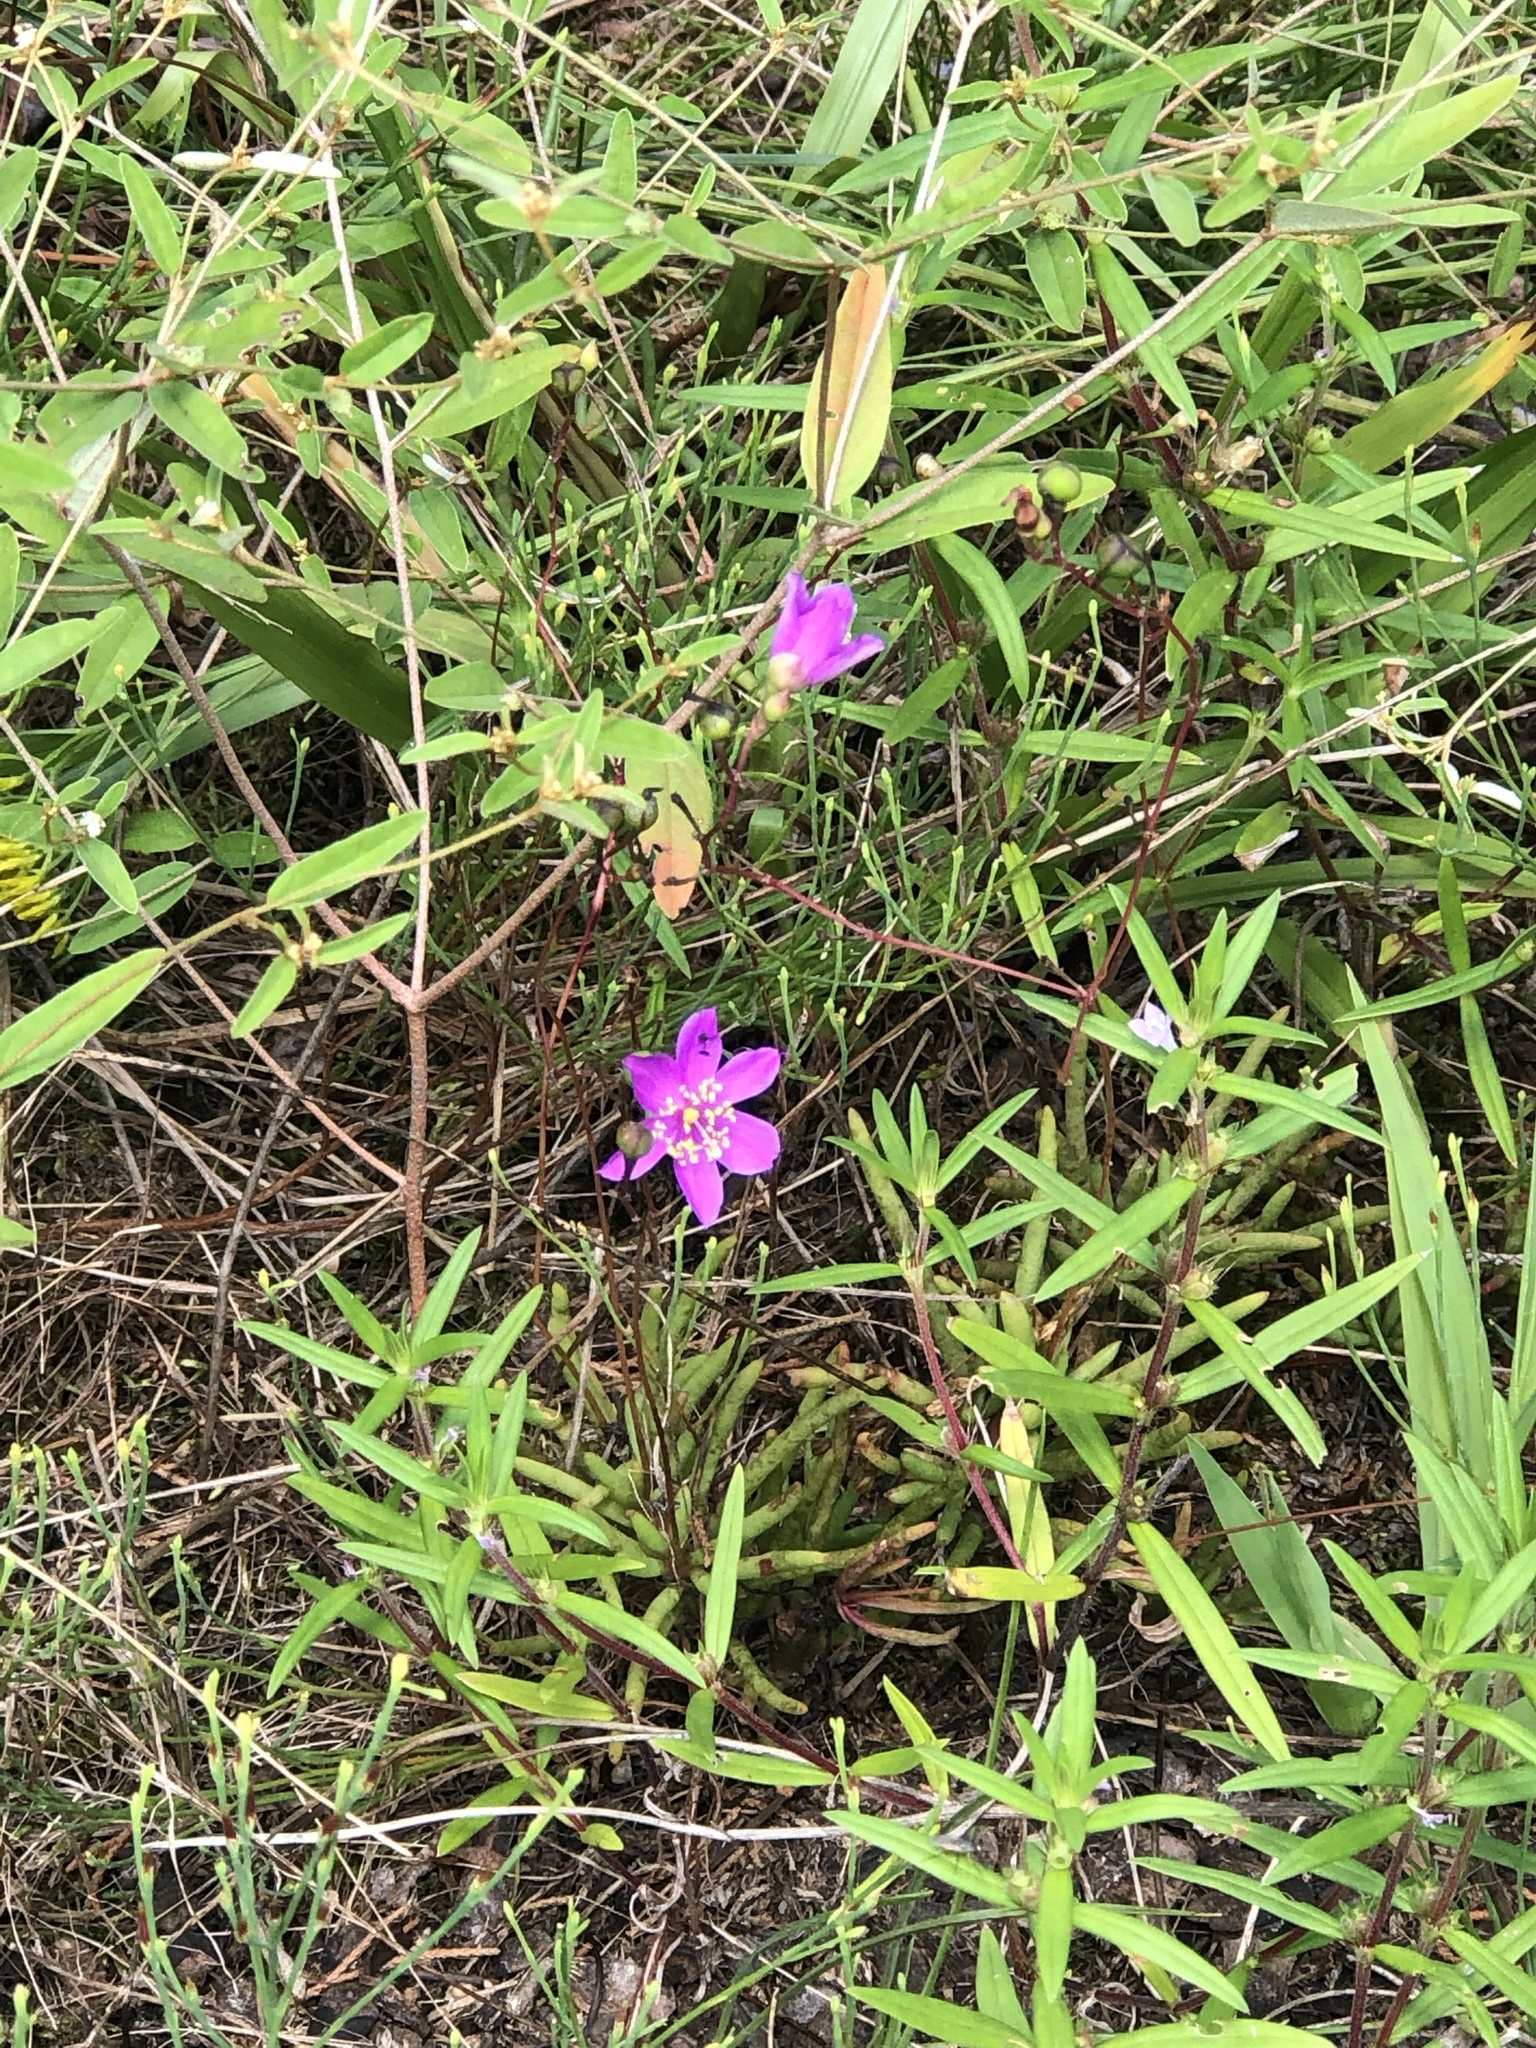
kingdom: Plantae
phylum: Tracheophyta
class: Magnoliopsida
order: Caryophyllales
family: Montiaceae
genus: Phemeranthus
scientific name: Phemeranthus mengesii
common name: Menges' fameflower
